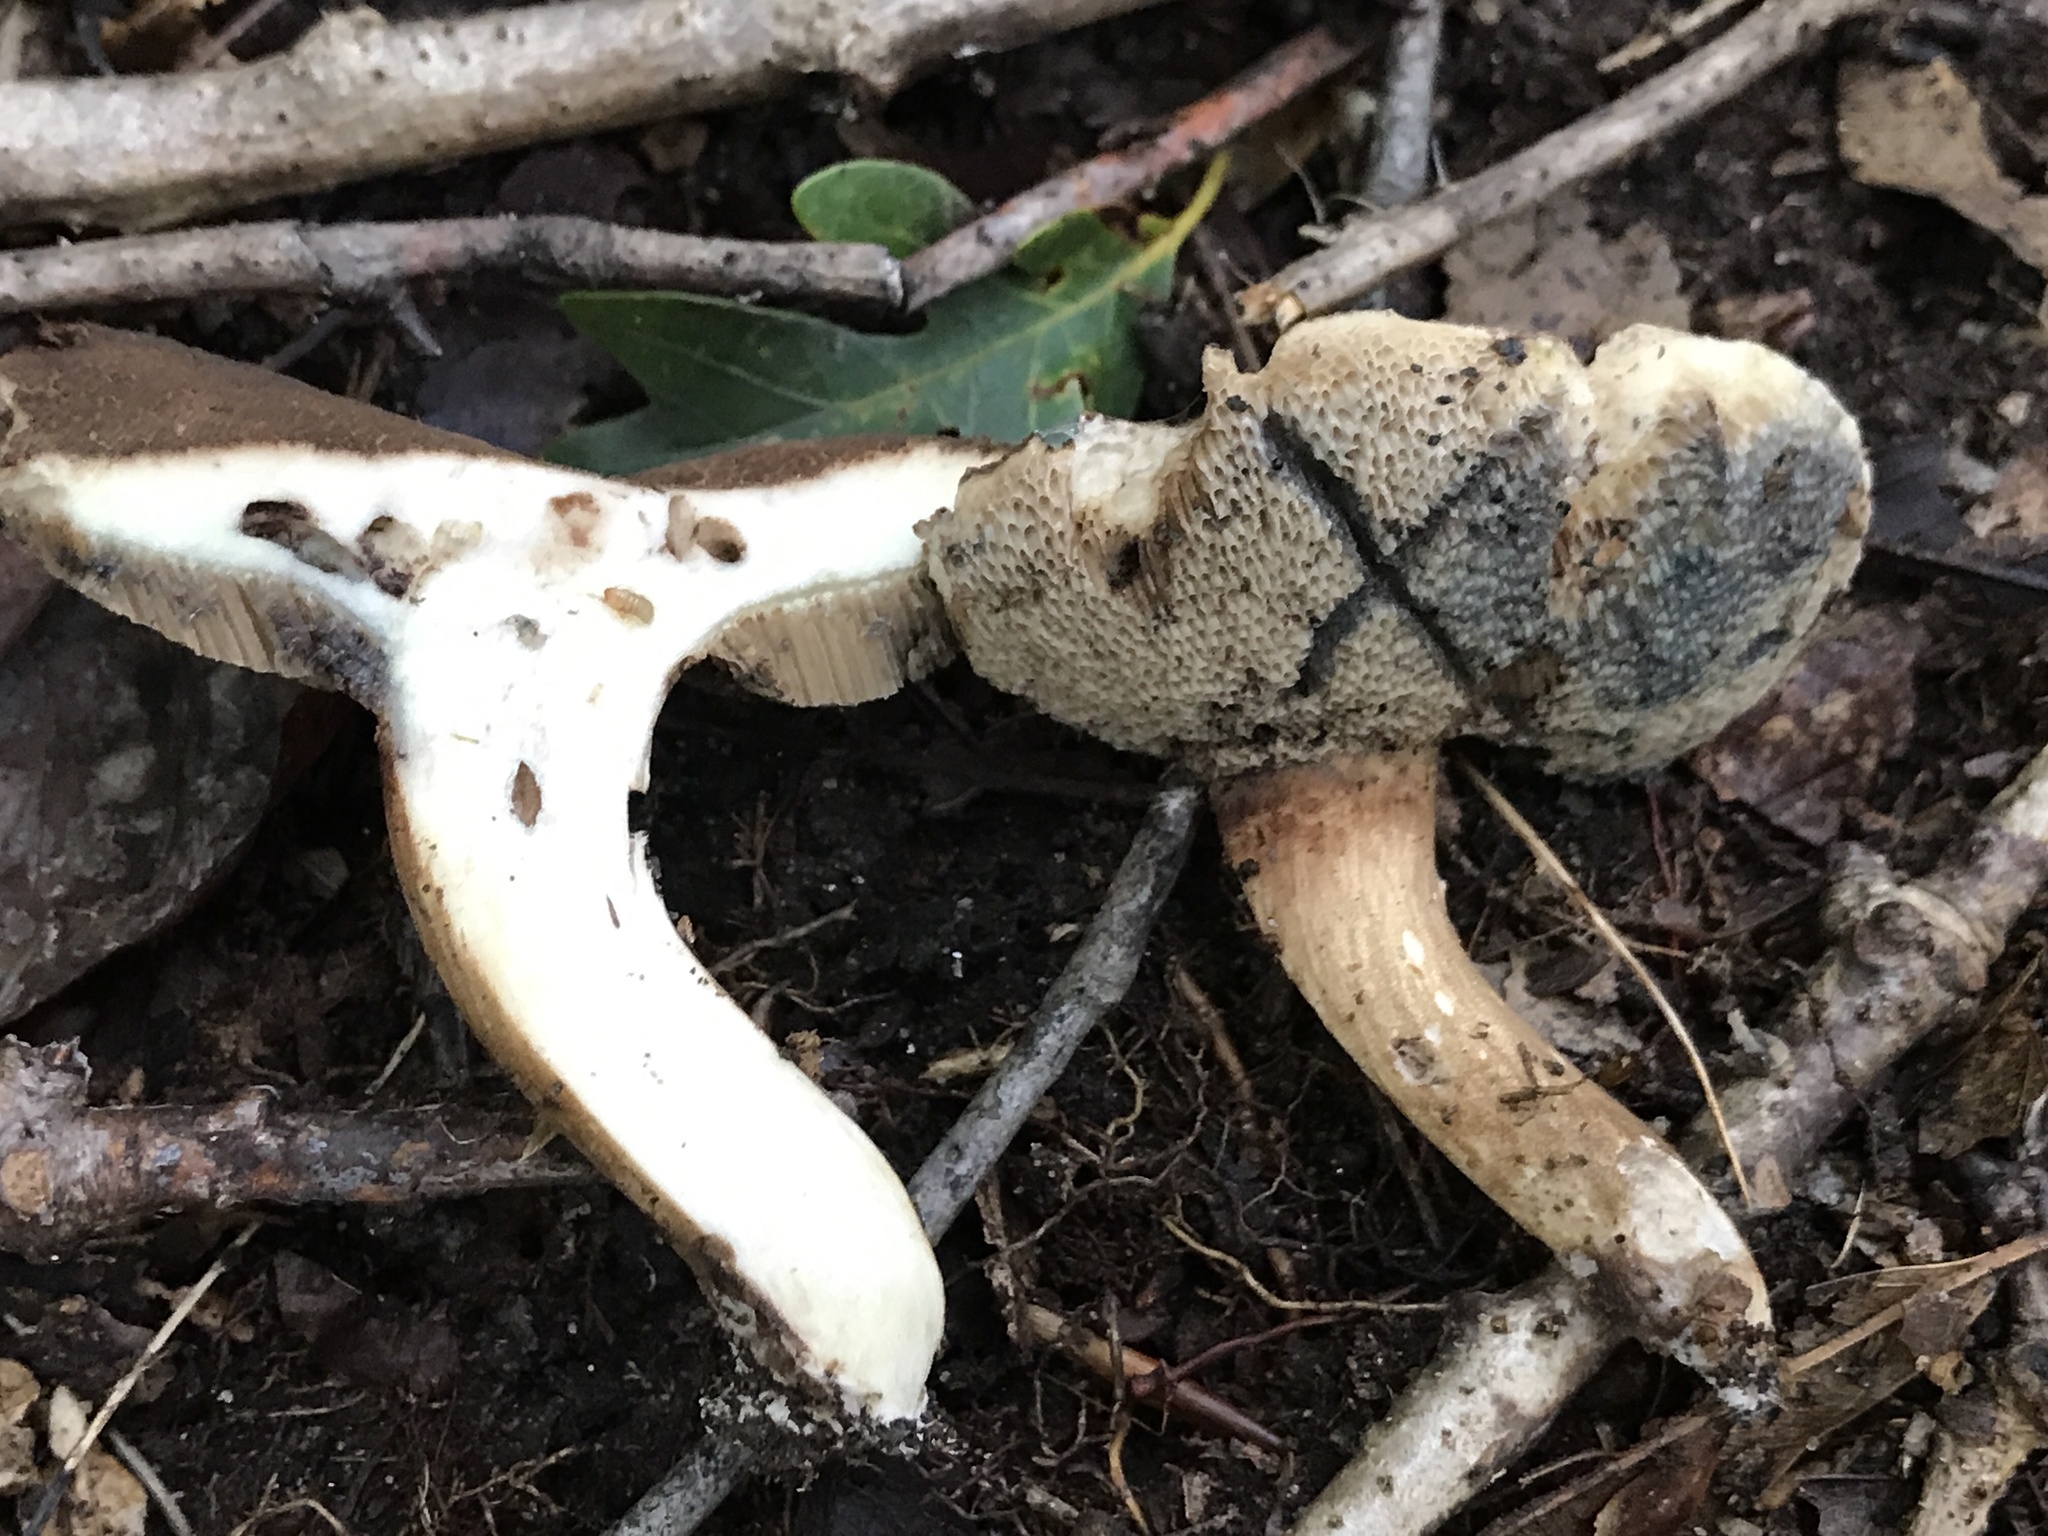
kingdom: Fungi
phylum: Basidiomycota
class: Agaricomycetes
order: Boletales
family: Boletaceae
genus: Porphyrellus
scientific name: Porphyrellus sordidus
